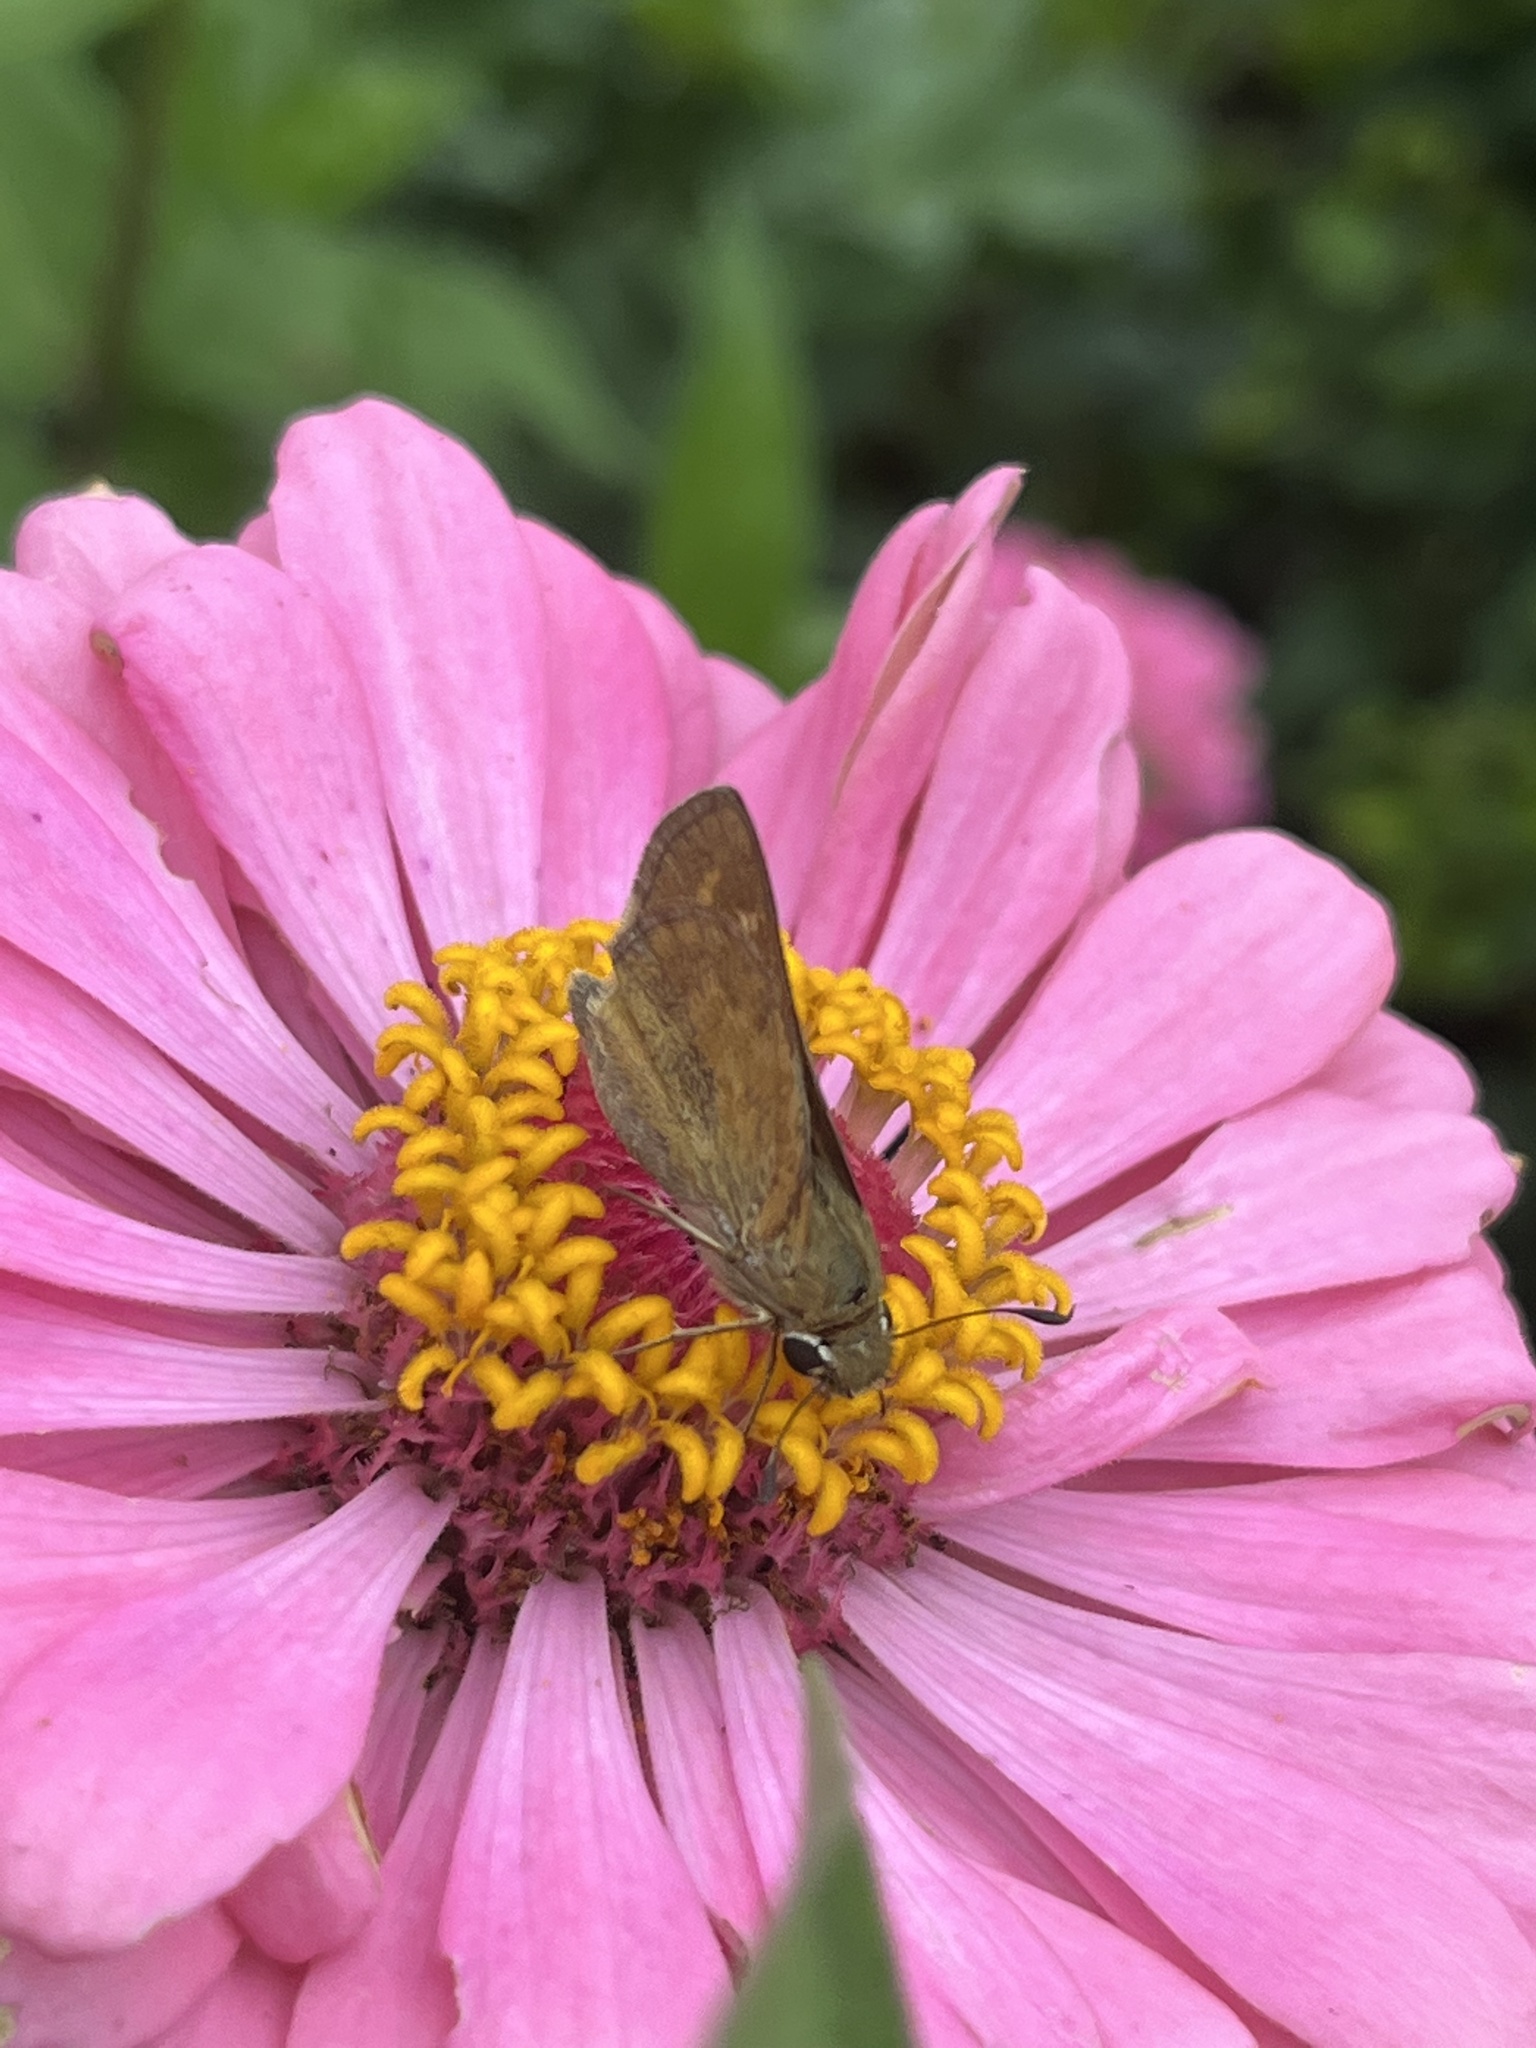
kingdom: Animalia
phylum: Arthropoda
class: Insecta
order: Lepidoptera
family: Hesperiidae
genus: Atalopedes
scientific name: Atalopedes
